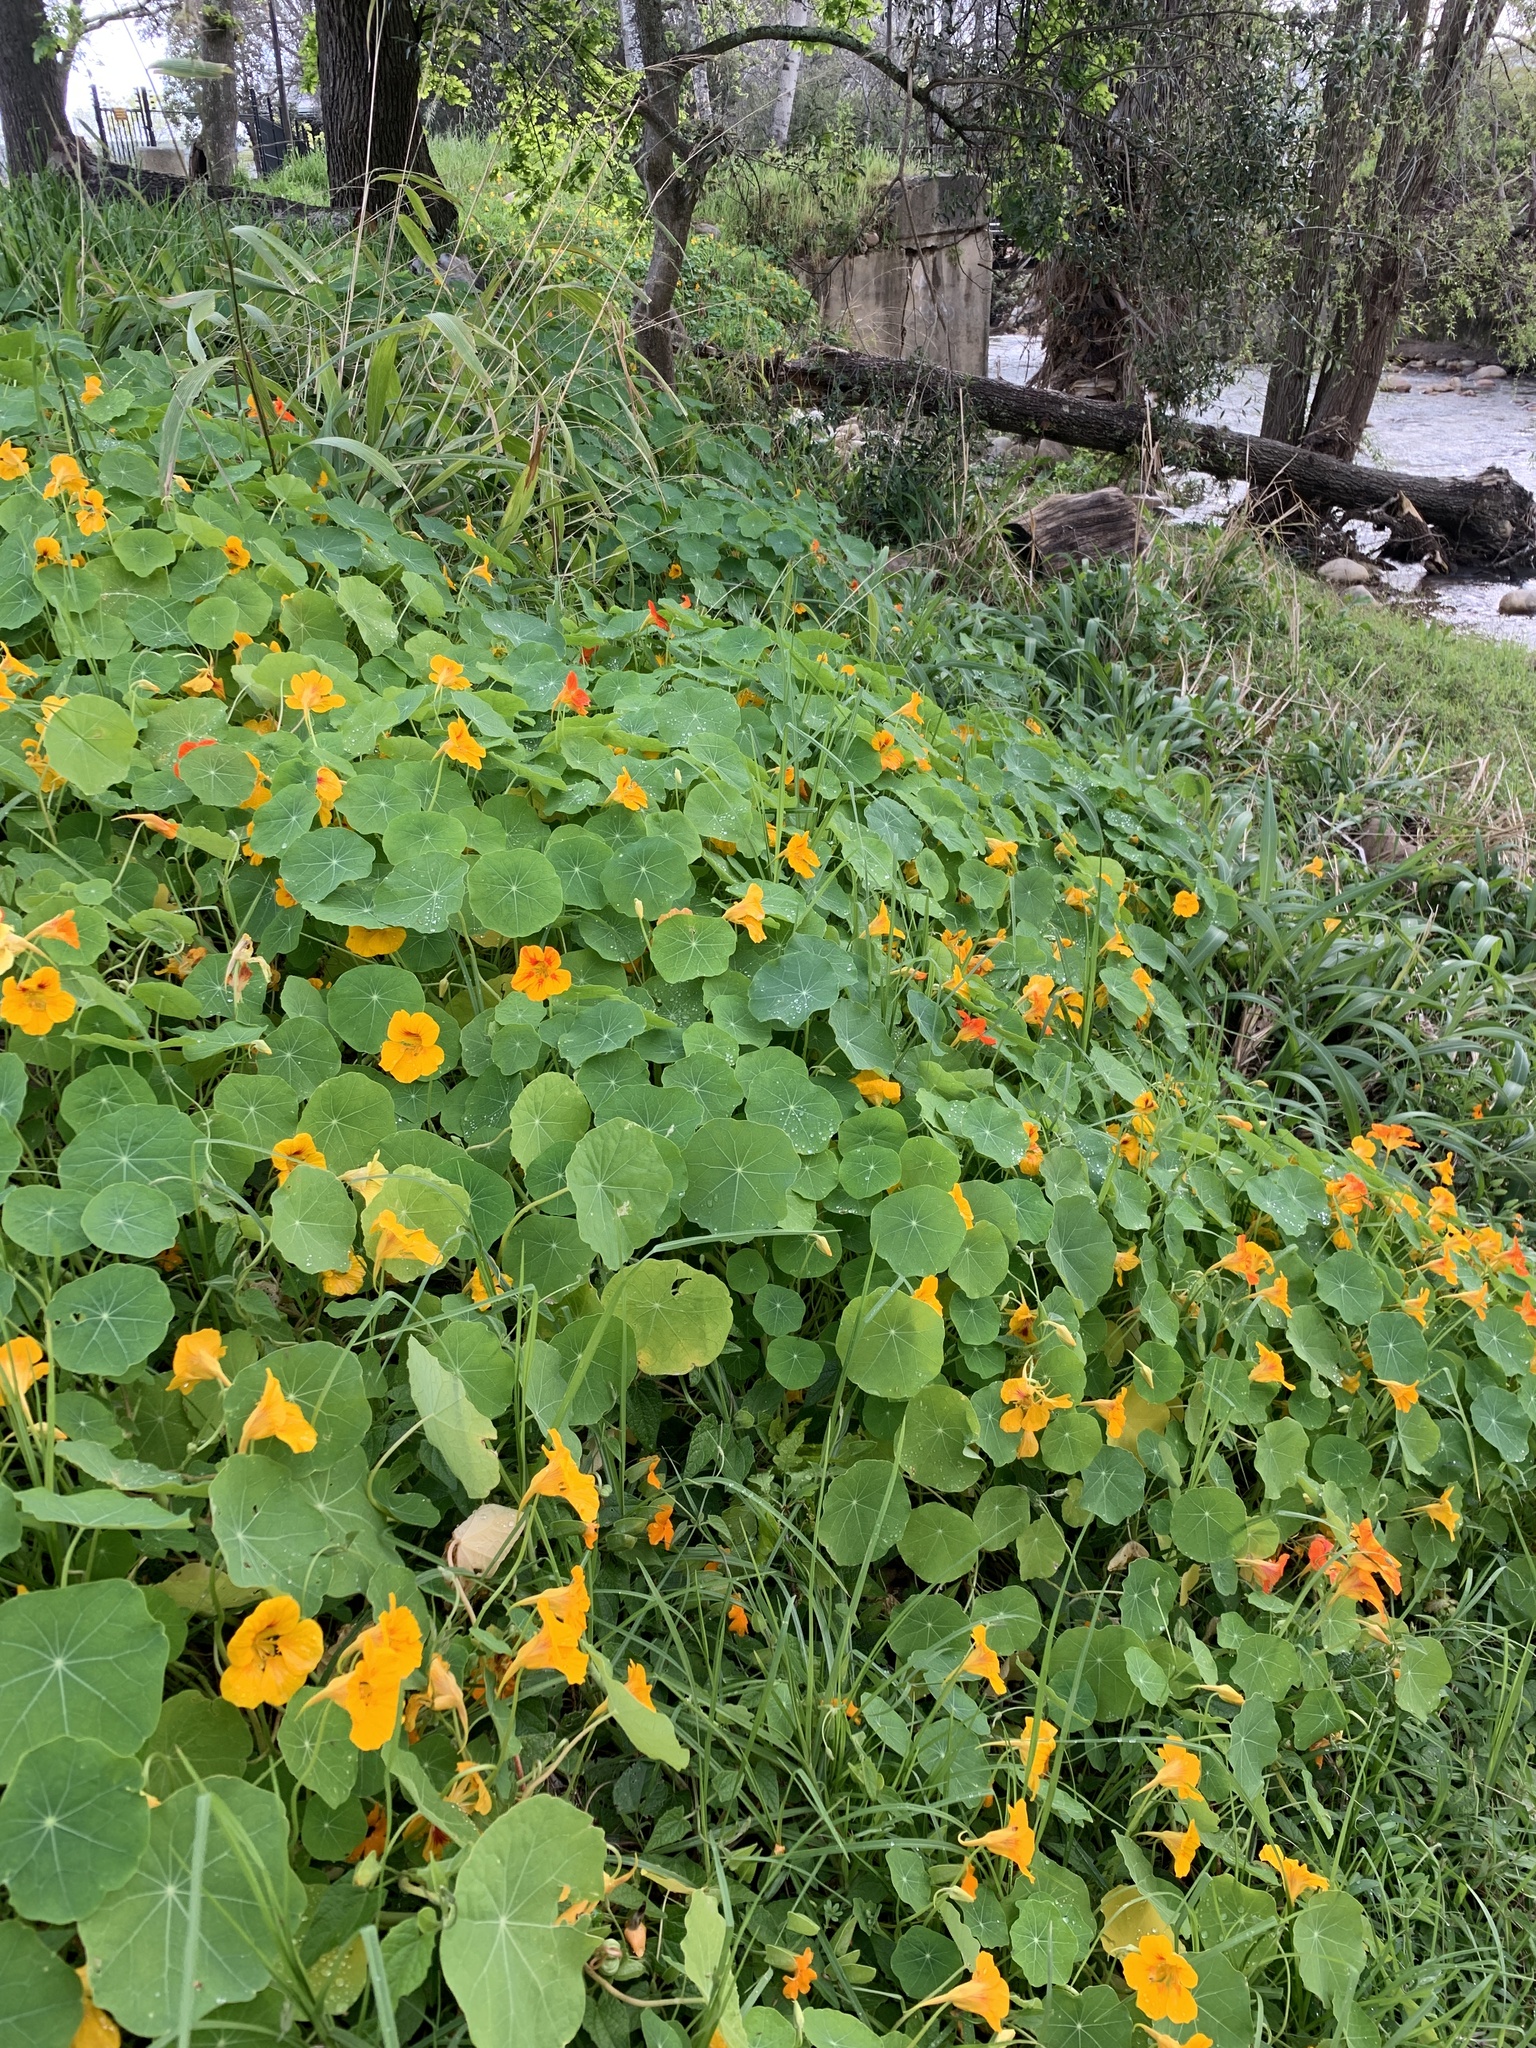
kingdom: Plantae
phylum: Tracheophyta
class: Magnoliopsida
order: Brassicales
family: Tropaeolaceae
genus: Tropaeolum
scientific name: Tropaeolum majus
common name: Nasturtium
